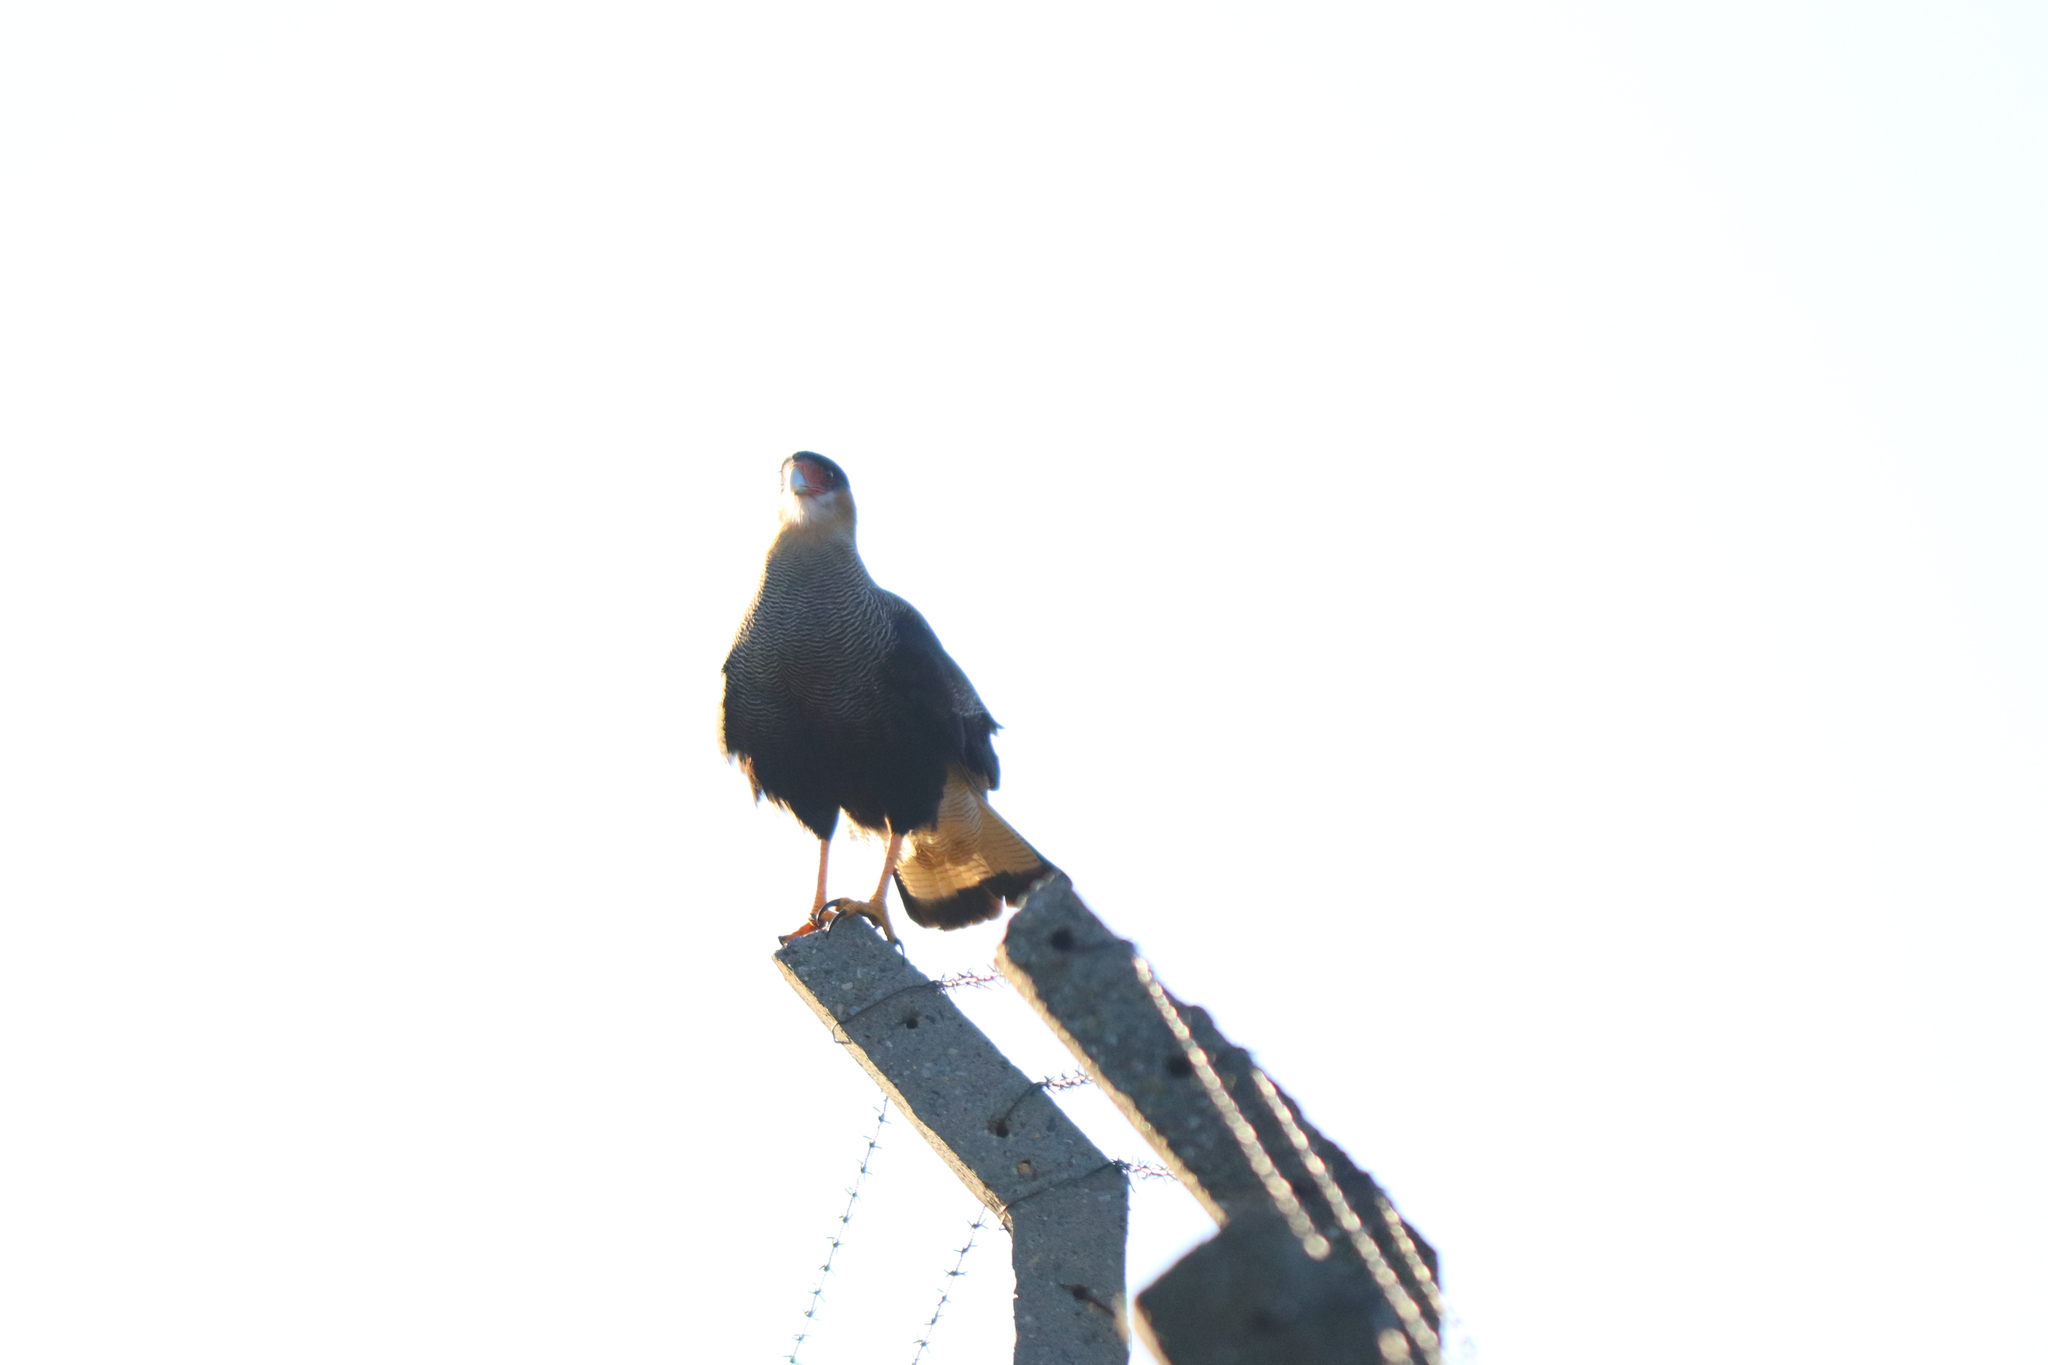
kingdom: Animalia
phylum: Chordata
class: Aves
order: Falconiformes
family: Falconidae
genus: Caracara
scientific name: Caracara plancus
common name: Southern caracara
